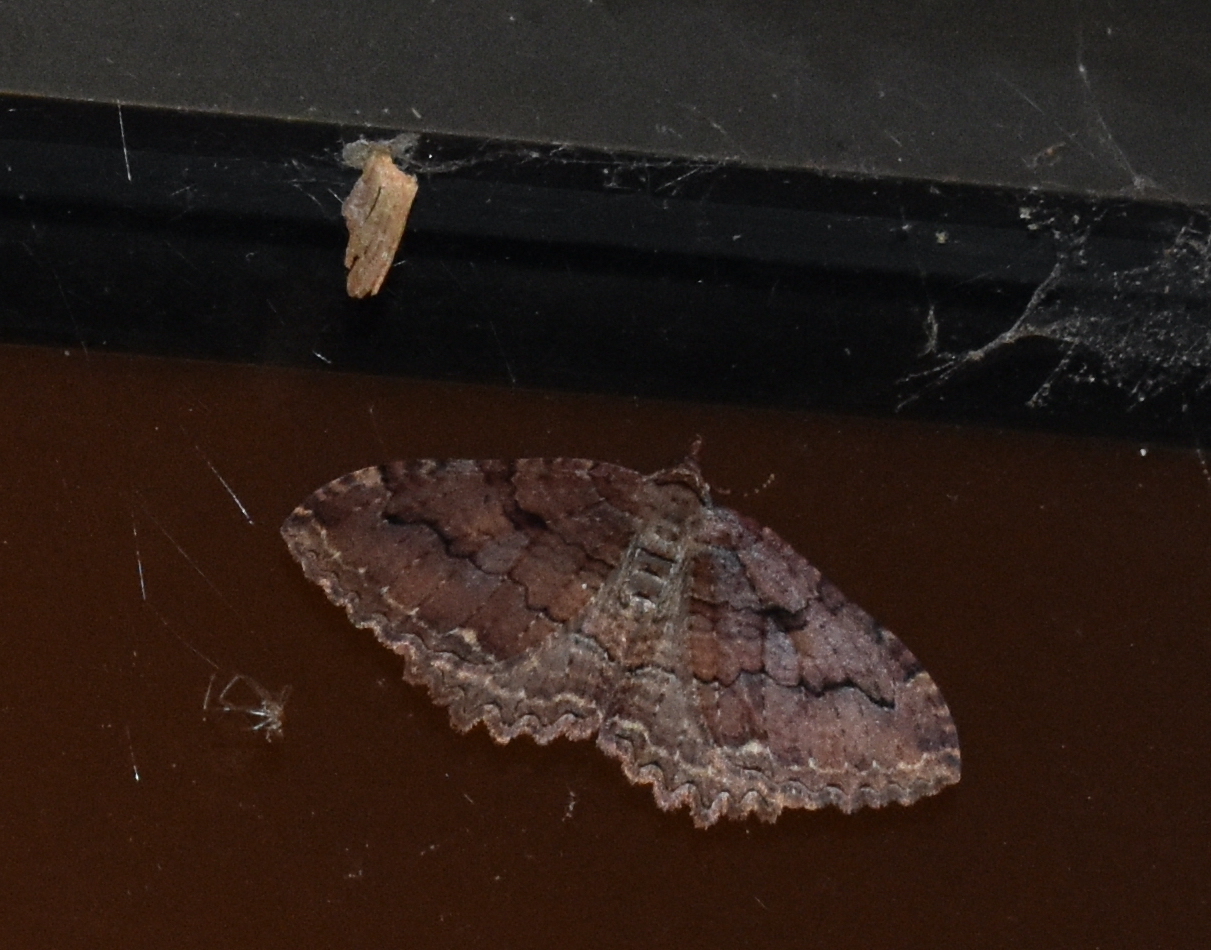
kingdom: Animalia
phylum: Arthropoda
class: Insecta
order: Lepidoptera
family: Geometridae
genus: Triphosa
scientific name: Triphosa haesitata
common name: Tissue moth
